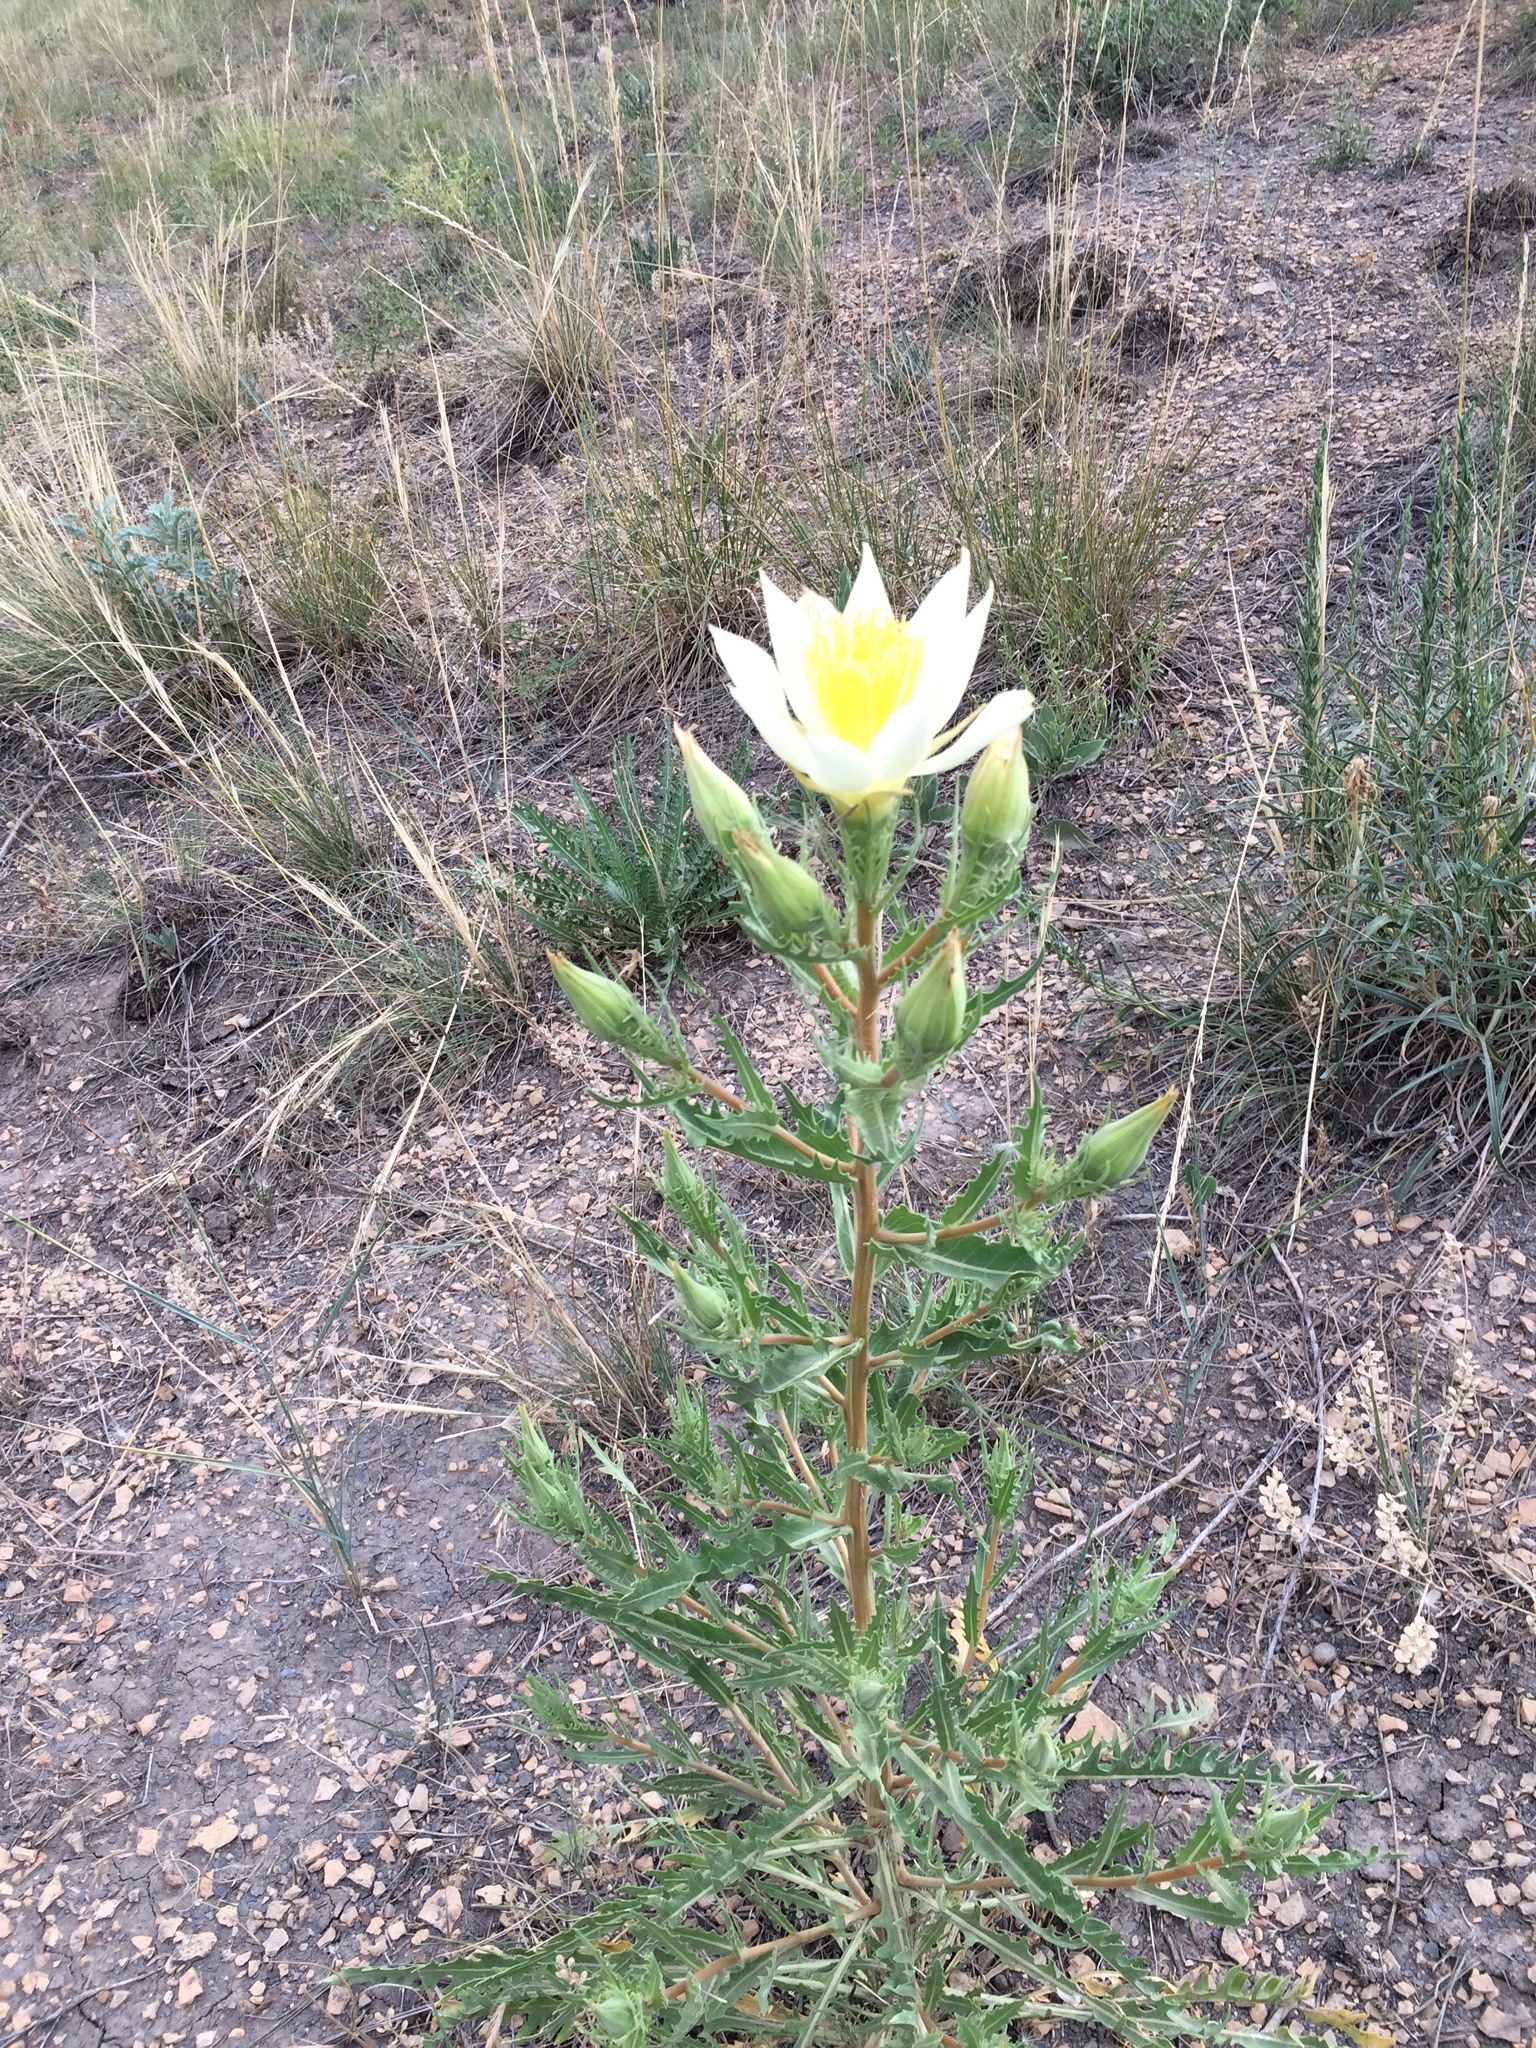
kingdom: Plantae
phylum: Tracheophyta
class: Magnoliopsida
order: Cornales
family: Loasaceae
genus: Mentzelia
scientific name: Mentzelia decapetala
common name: Gumbo-lily
